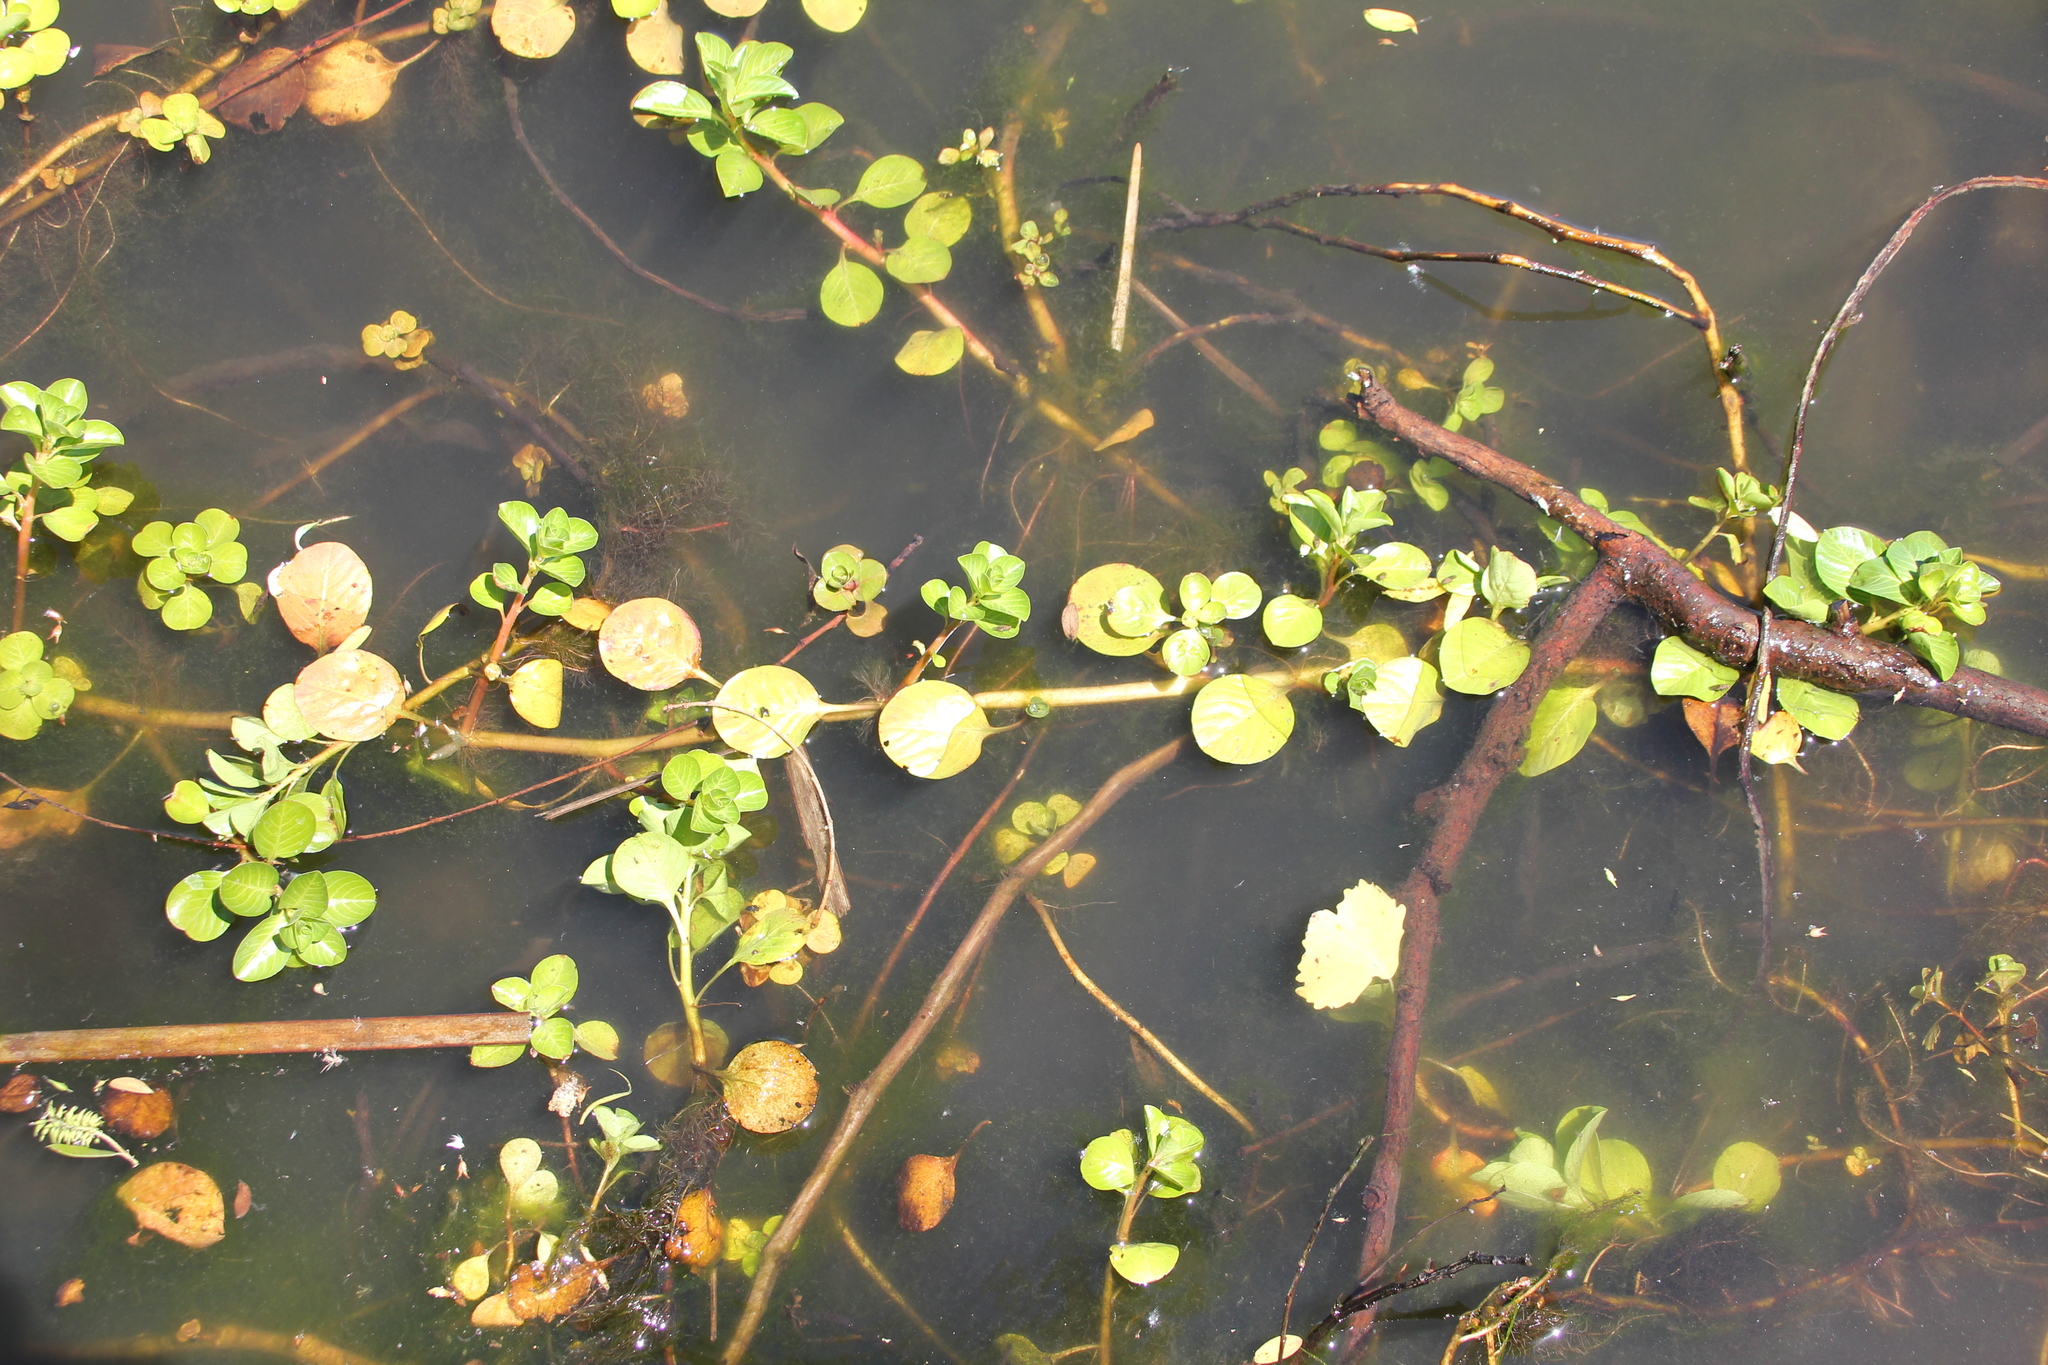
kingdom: Plantae
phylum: Tracheophyta
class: Magnoliopsida
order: Myrtales
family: Onagraceae
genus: Ludwigia
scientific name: Ludwigia peploides
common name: Floating primrose-willow
